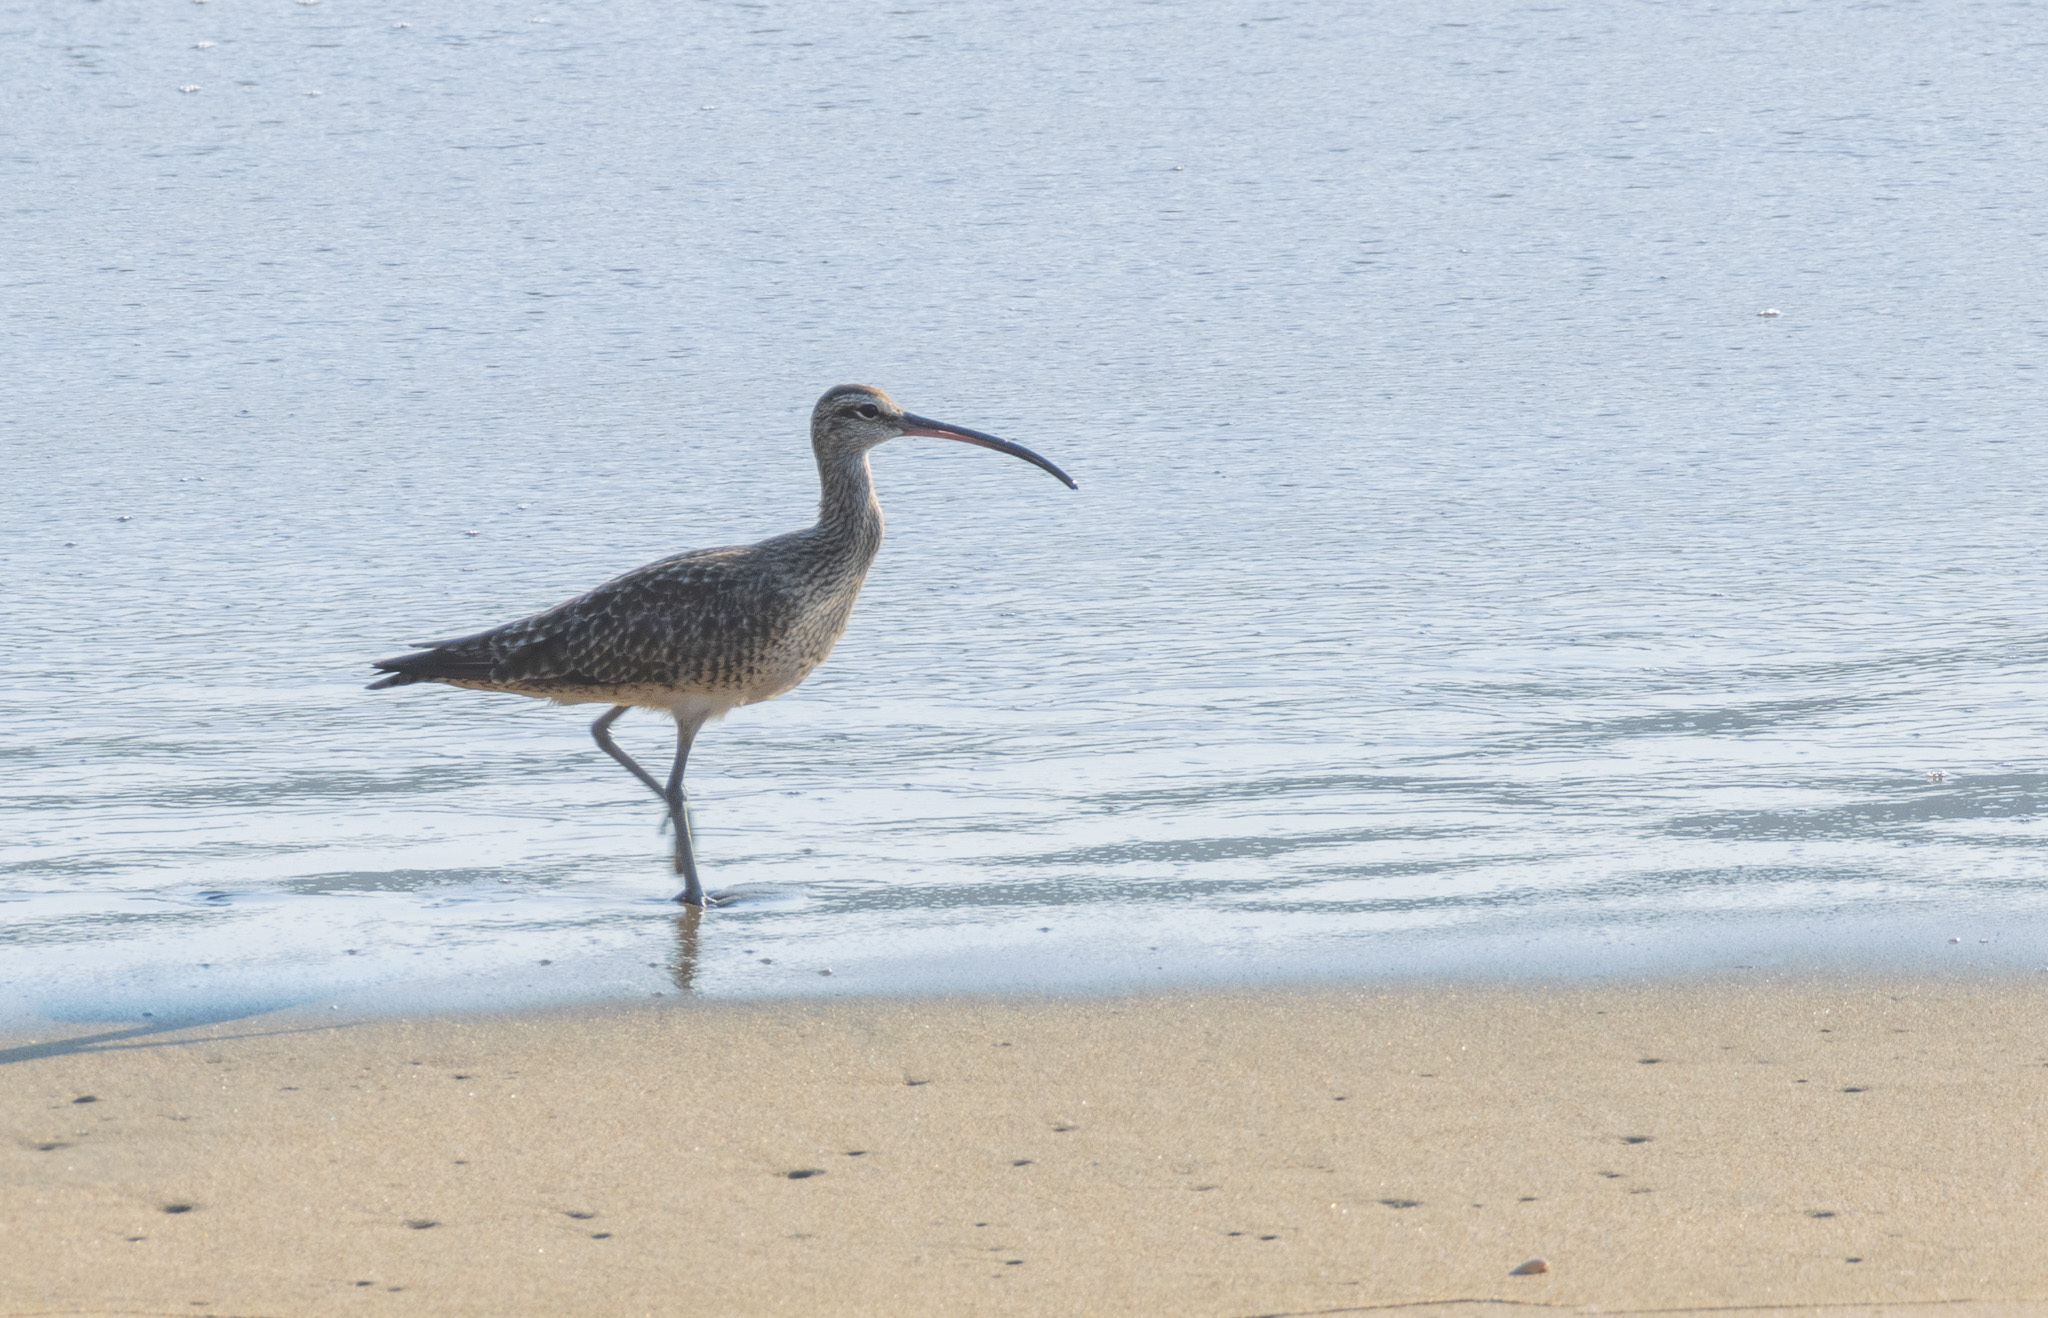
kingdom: Animalia
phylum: Chordata
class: Aves
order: Charadriiformes
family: Scolopacidae
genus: Numenius
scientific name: Numenius phaeopus
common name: Whimbrel
